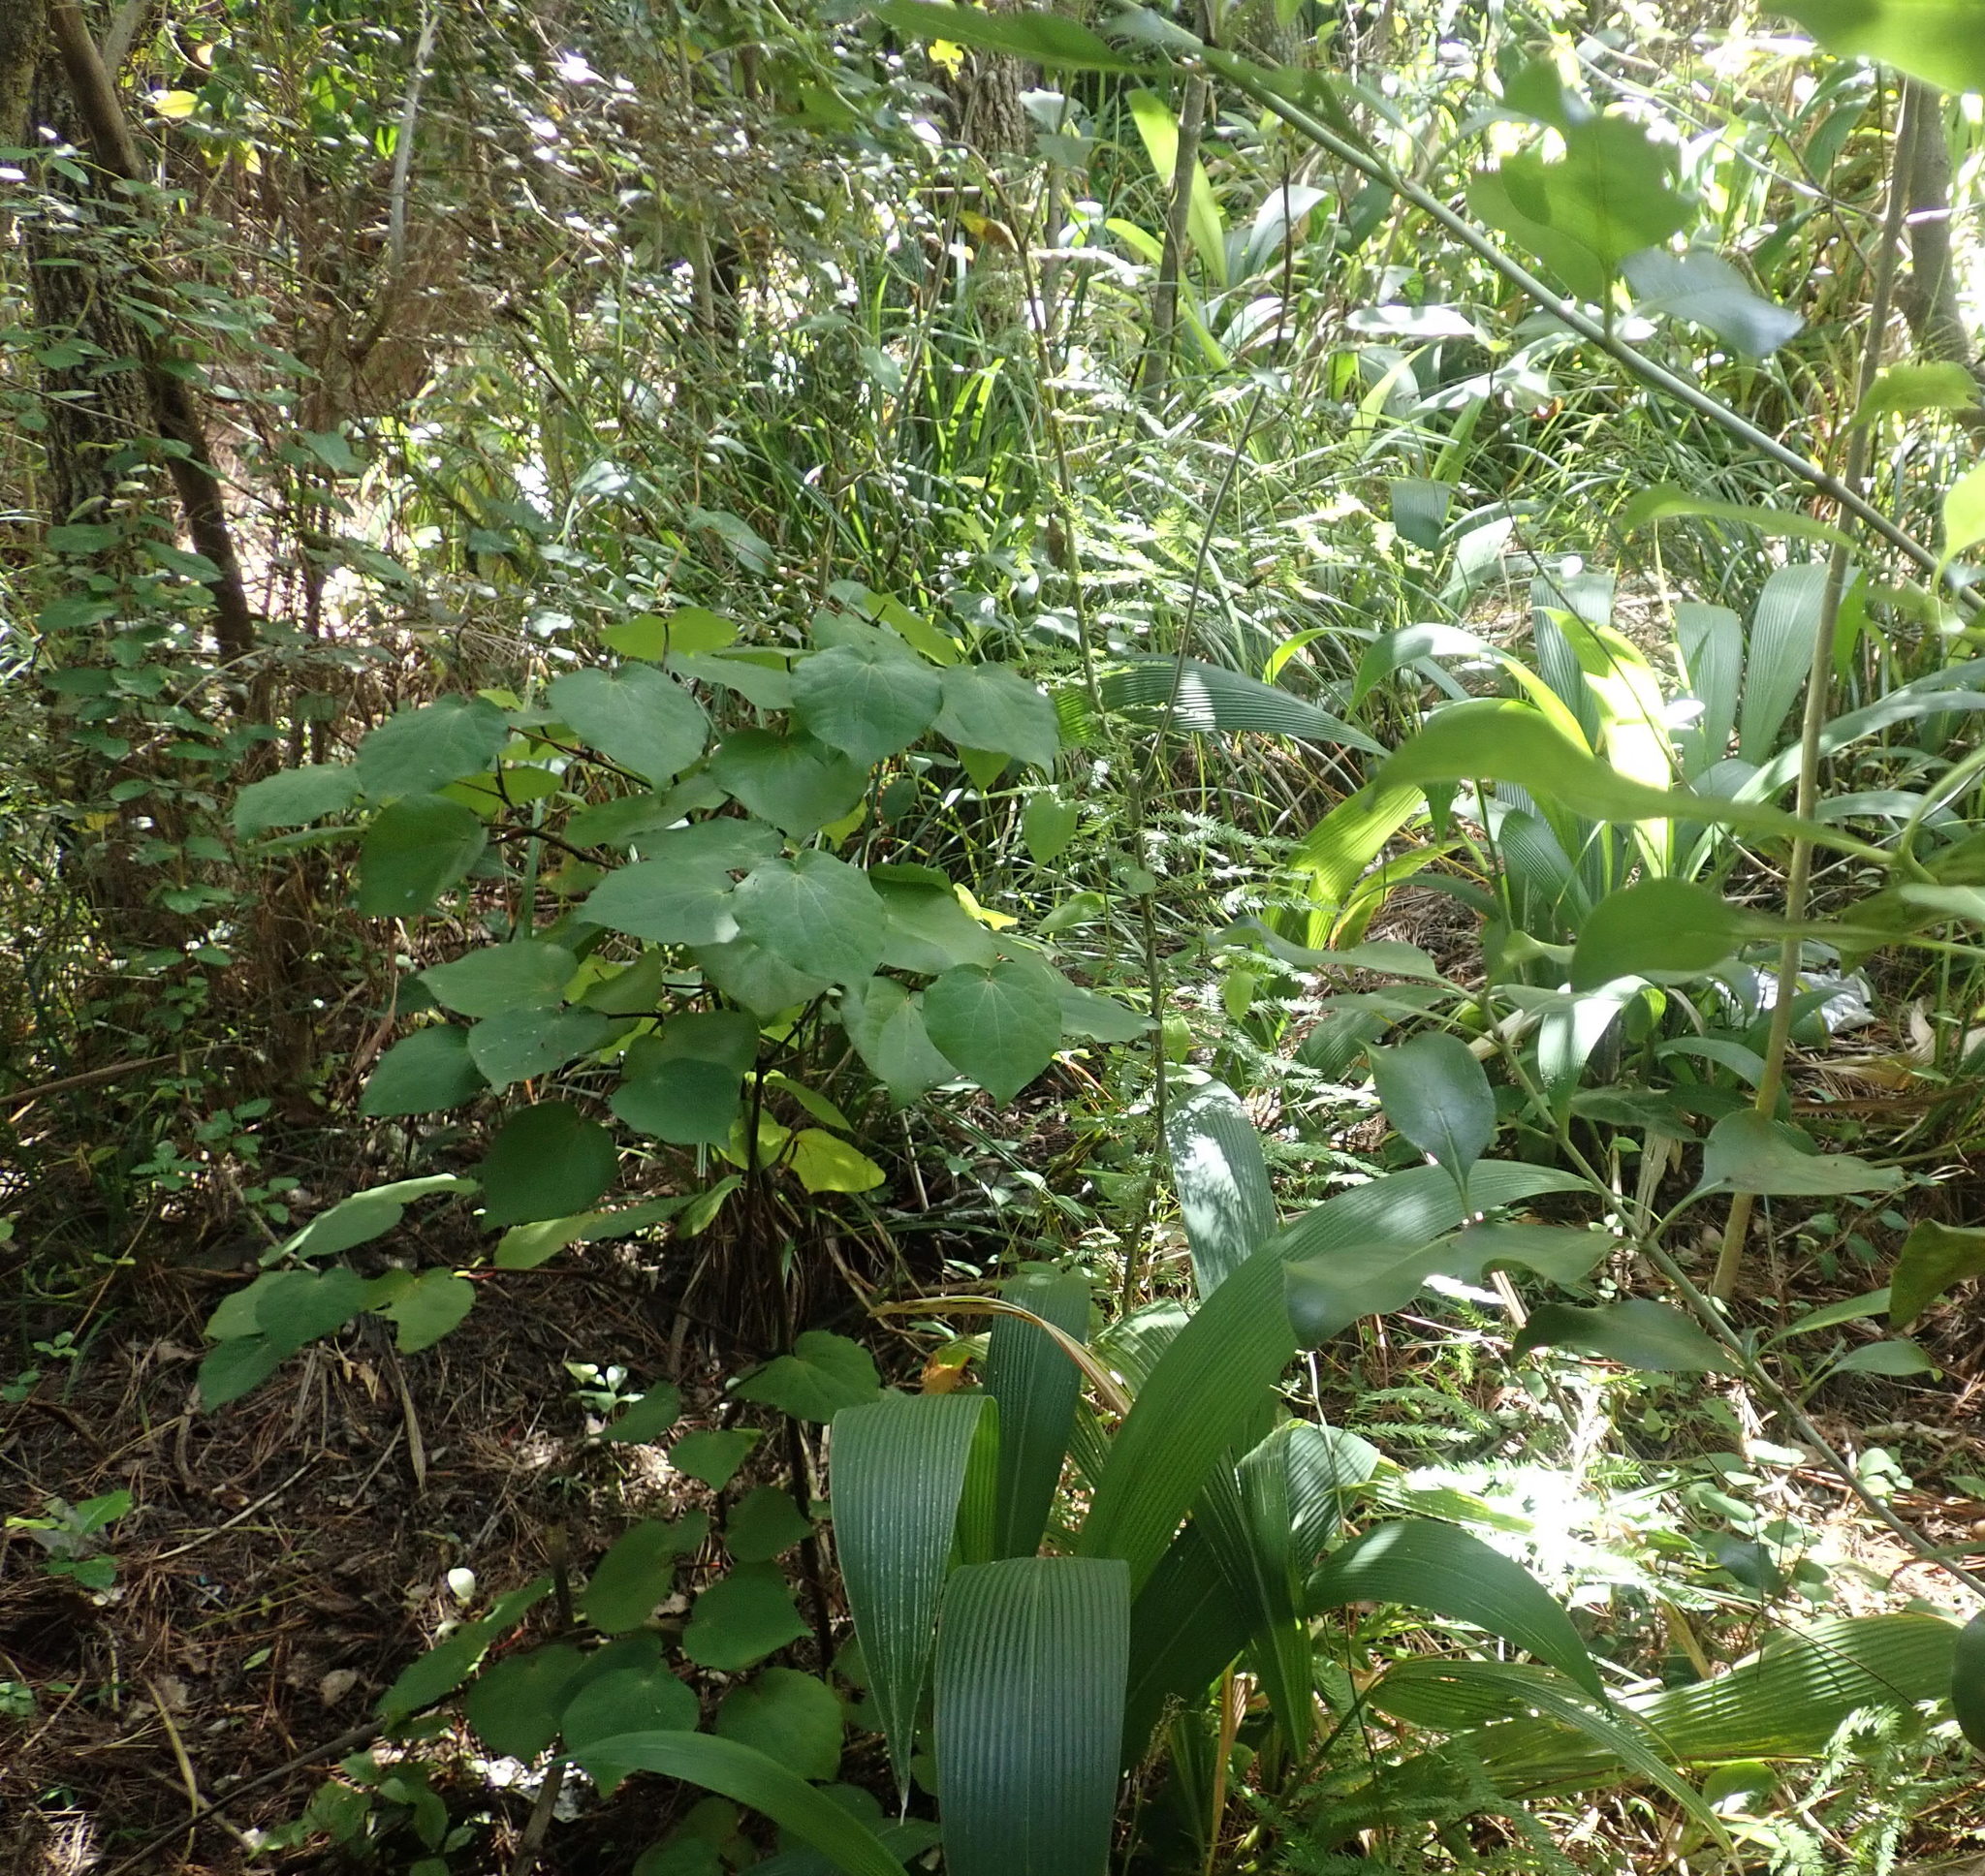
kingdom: Plantae
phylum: Tracheophyta
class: Magnoliopsida
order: Piperales
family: Piperaceae
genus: Macropiper
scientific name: Macropiper excelsum
